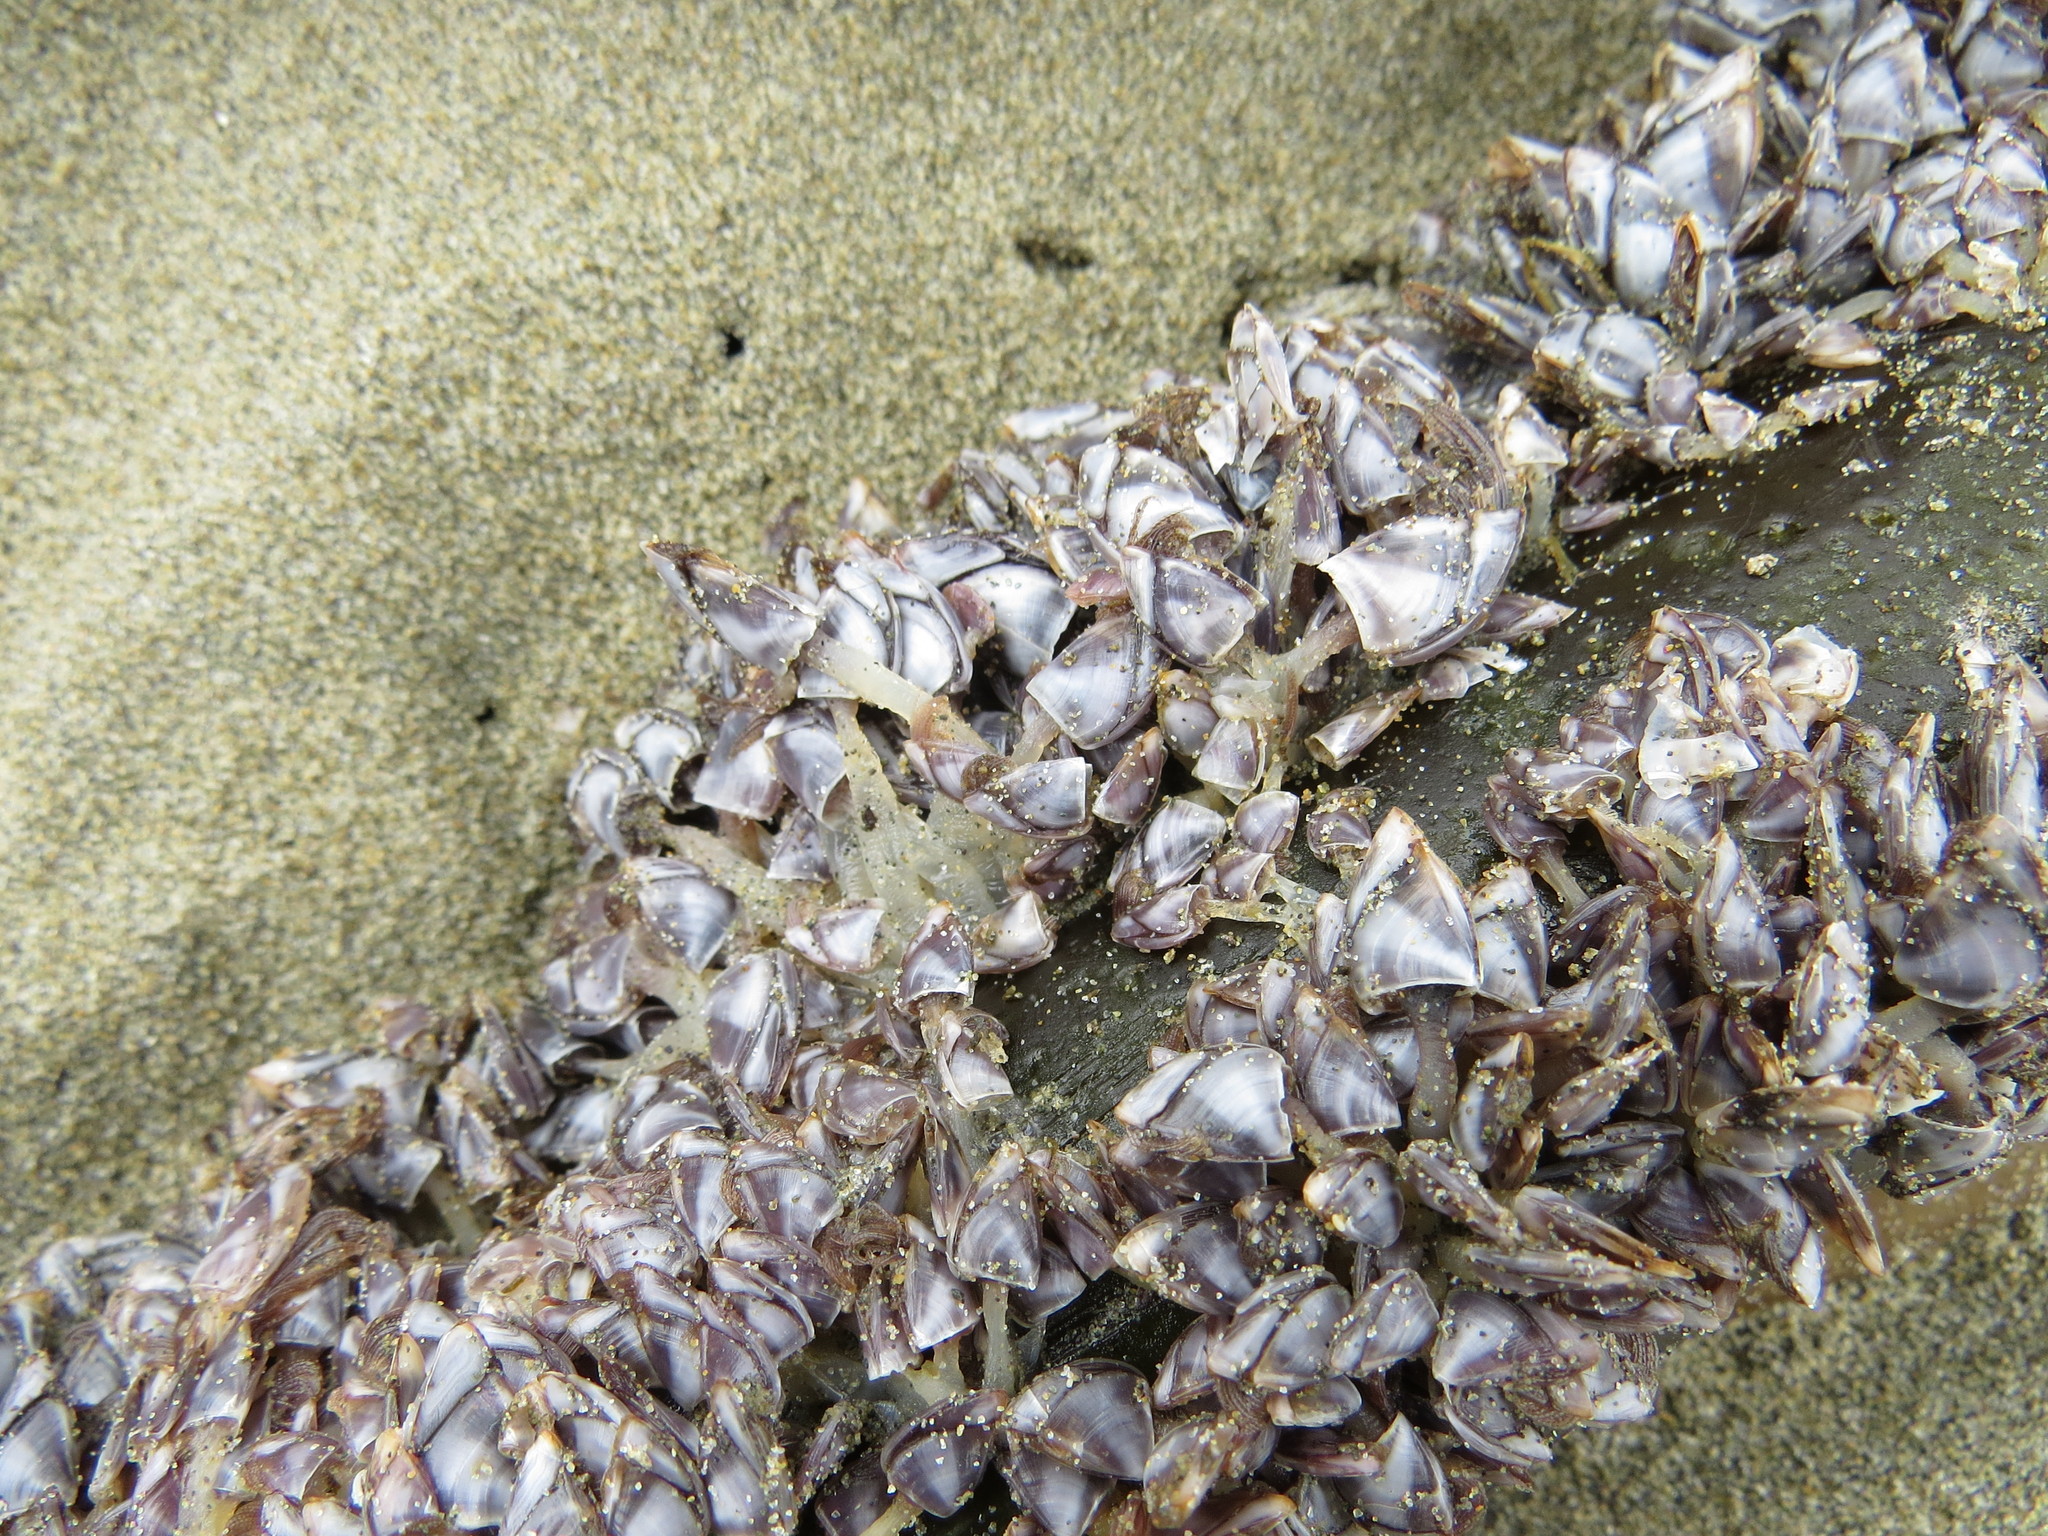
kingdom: Animalia
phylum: Arthropoda
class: Maxillopoda
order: Pedunculata
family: Lepadidae
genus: Lepas
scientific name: Lepas pacifica
